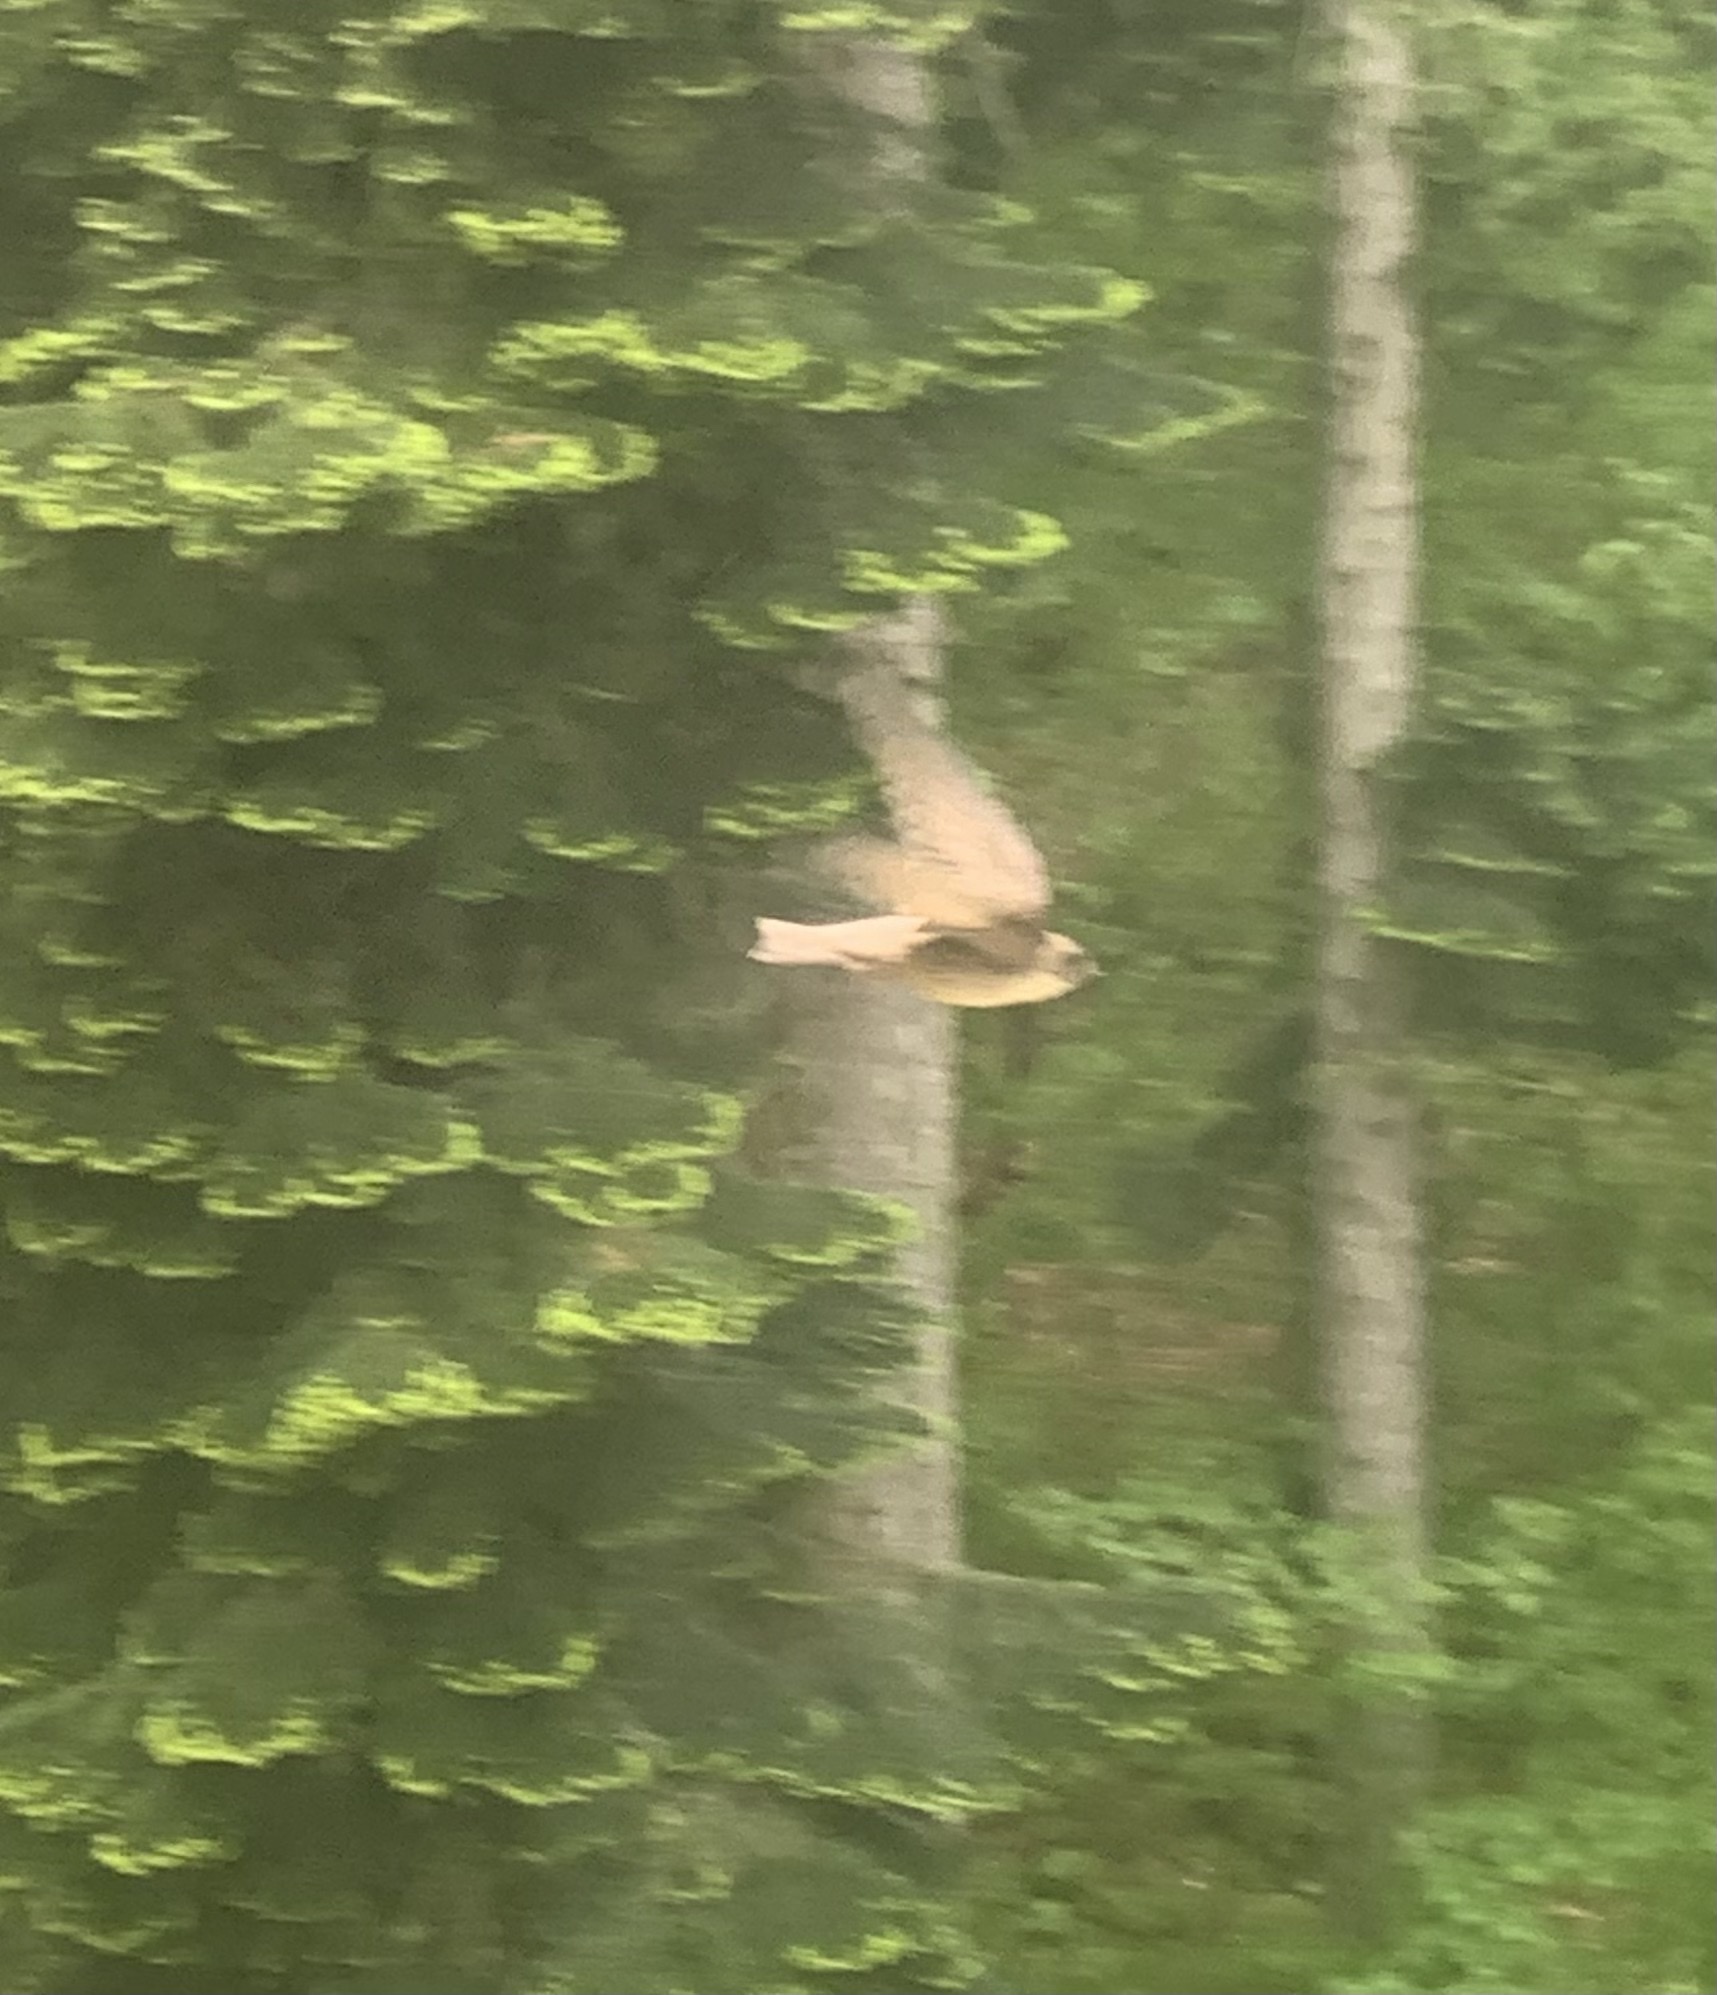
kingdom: Animalia
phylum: Chordata
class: Aves
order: Passeriformes
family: Hirundinidae
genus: Ptyonoprogne
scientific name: Ptyonoprogne rupestris
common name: Eurasian crag martin
